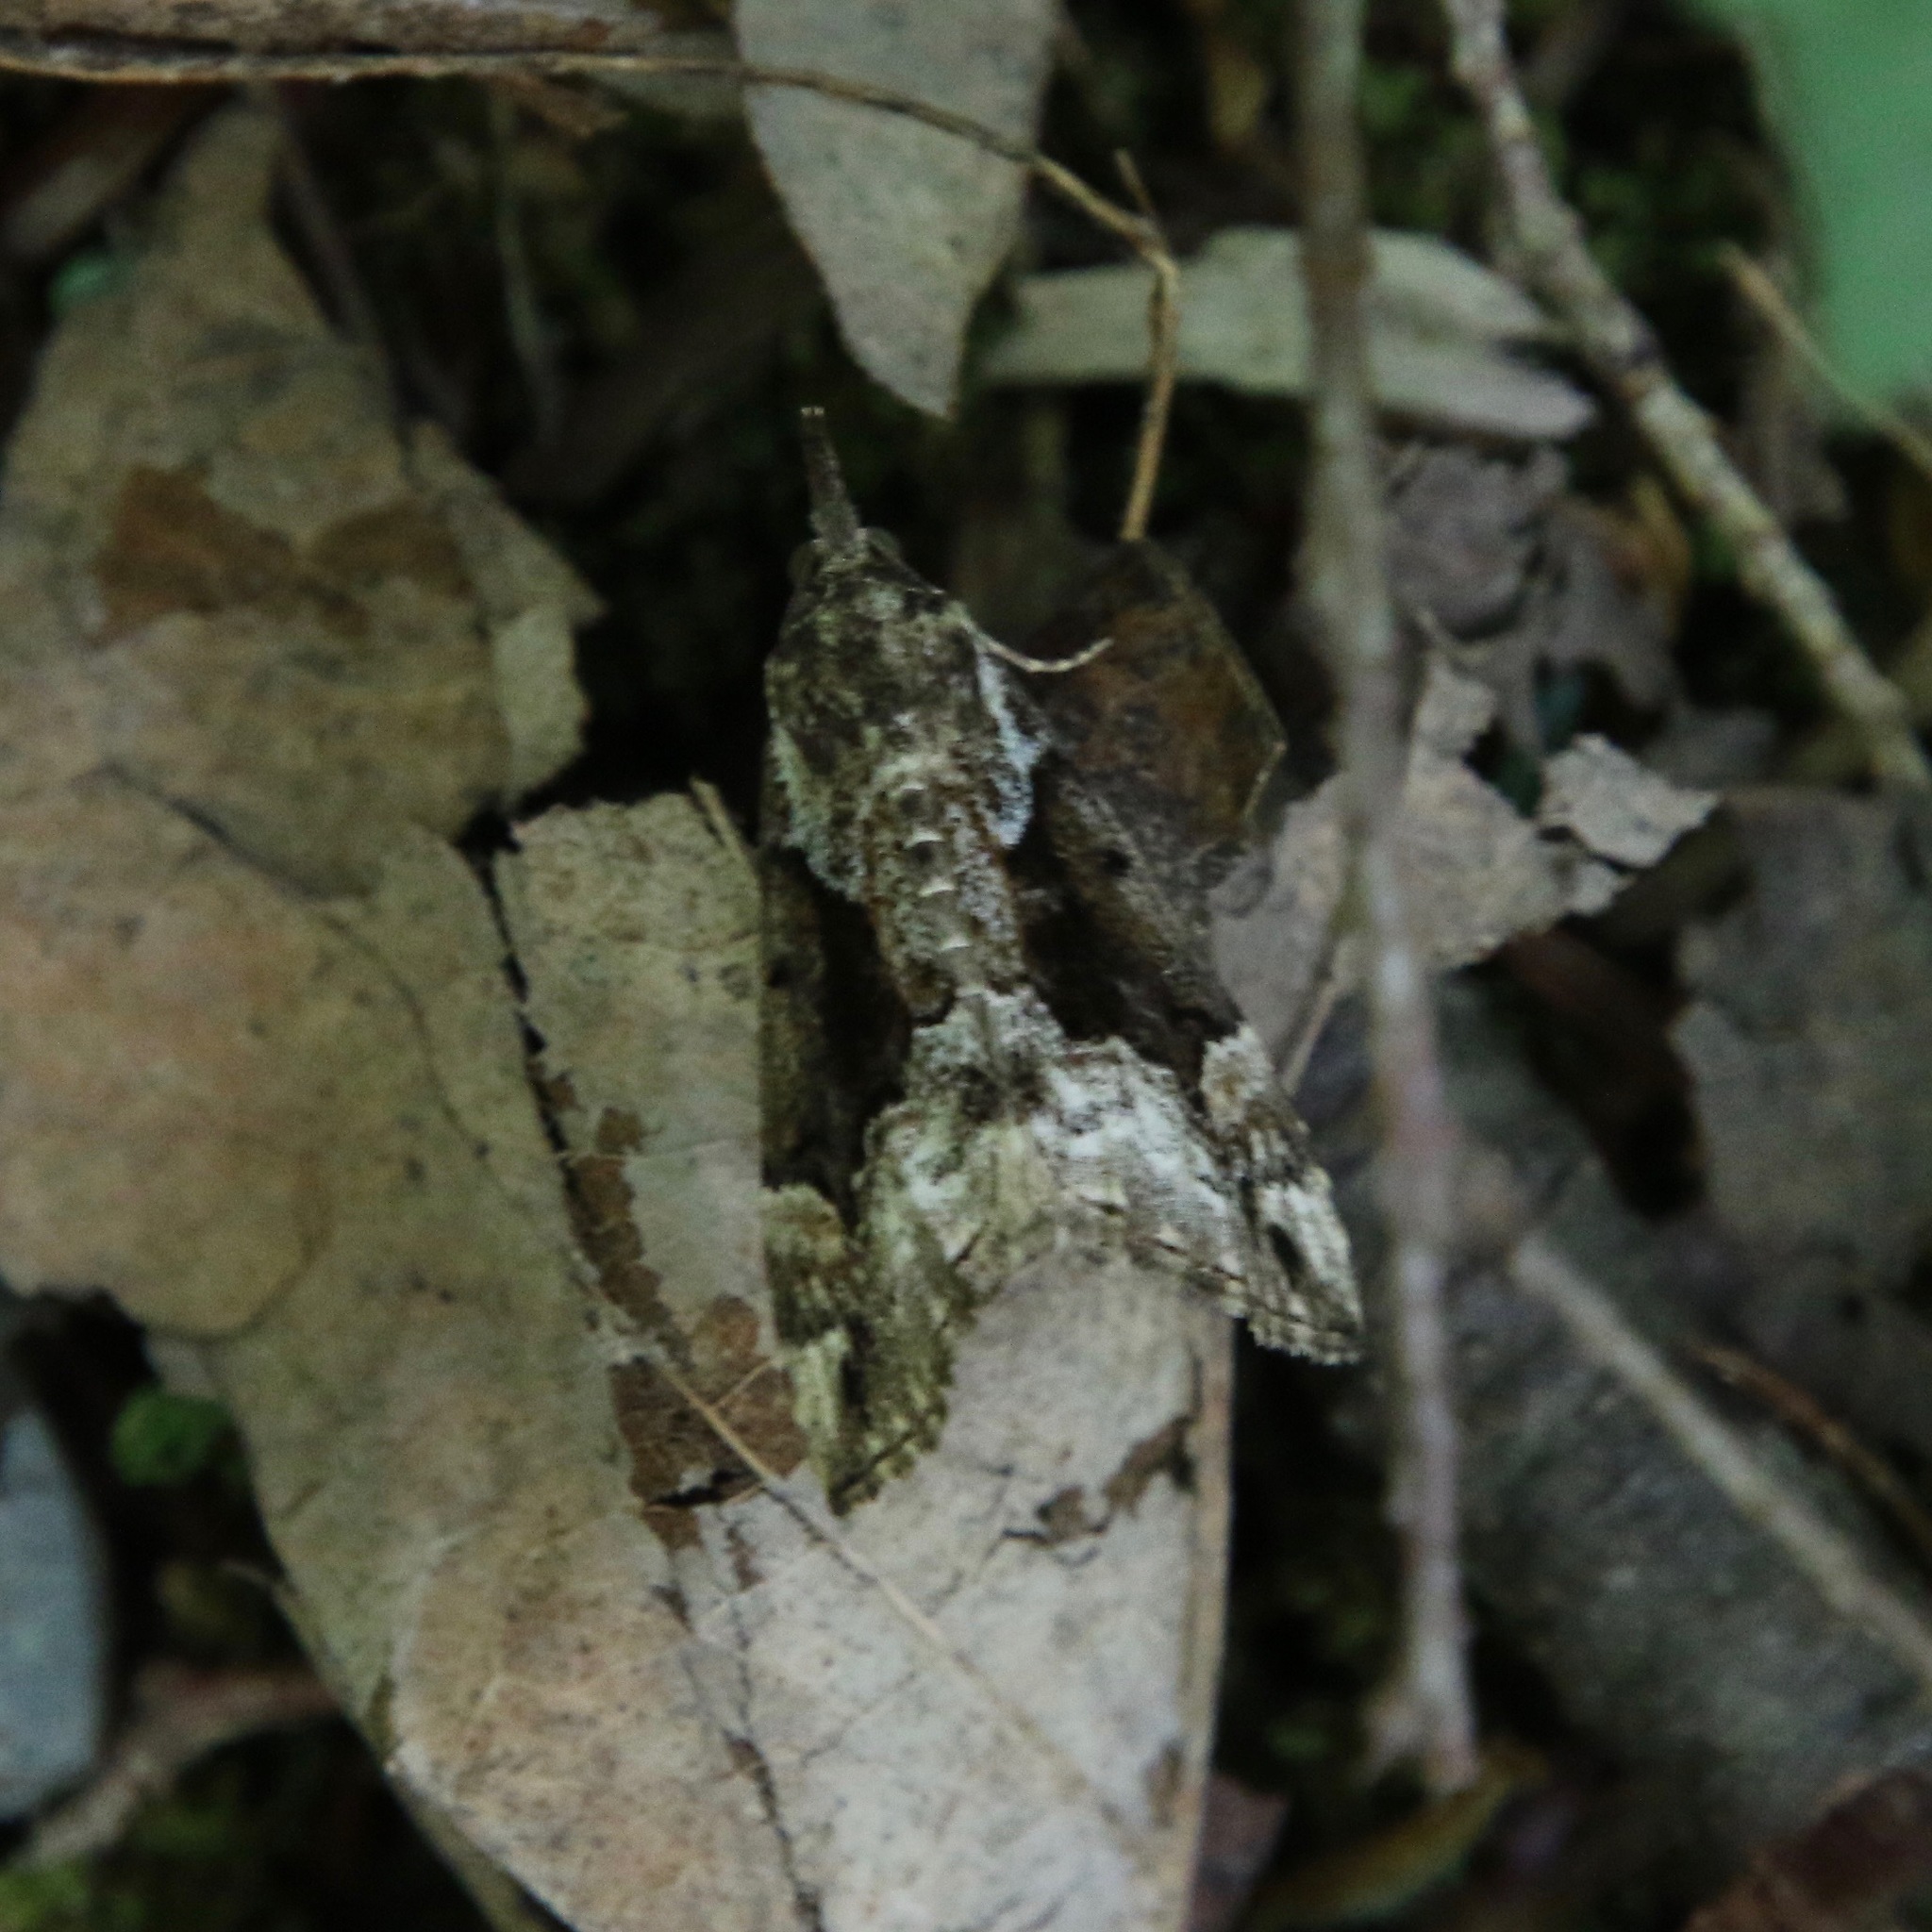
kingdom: Animalia
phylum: Arthropoda
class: Insecta
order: Lepidoptera
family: Erebidae
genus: Hypena
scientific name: Hypena palparia
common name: Mottled bomolocha moth
